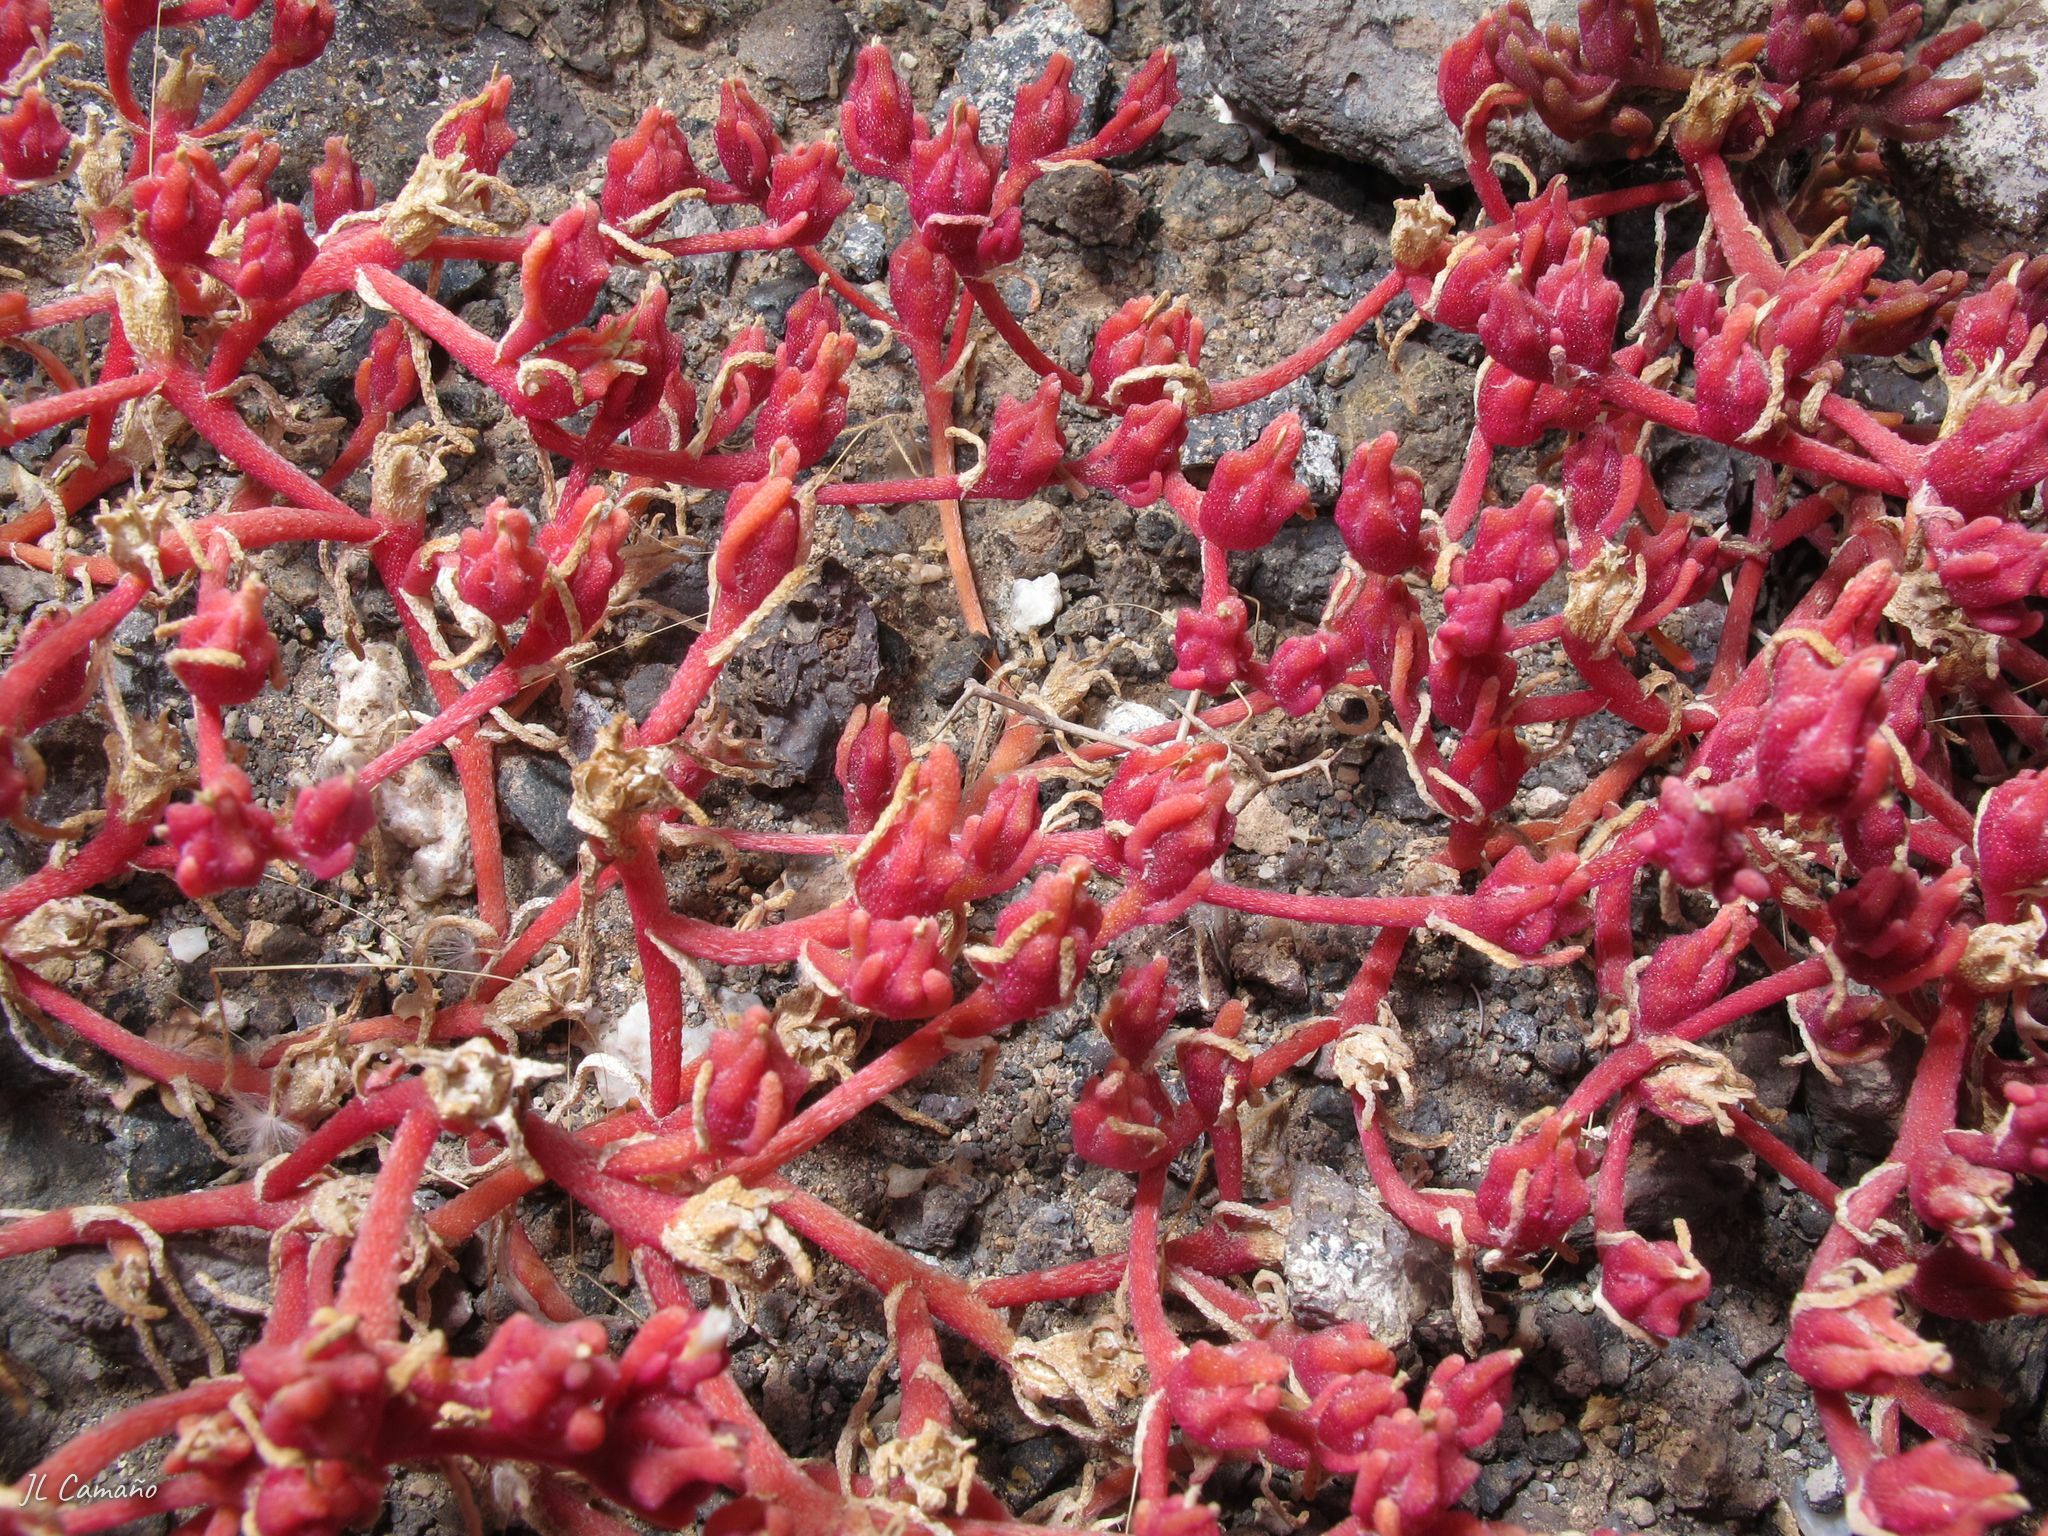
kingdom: Plantae
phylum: Tracheophyta
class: Magnoliopsida
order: Caryophyllales
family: Aizoaceae
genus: Mesembryanthemum
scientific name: Mesembryanthemum nodiflorum
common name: Slenderleaf iceplant
